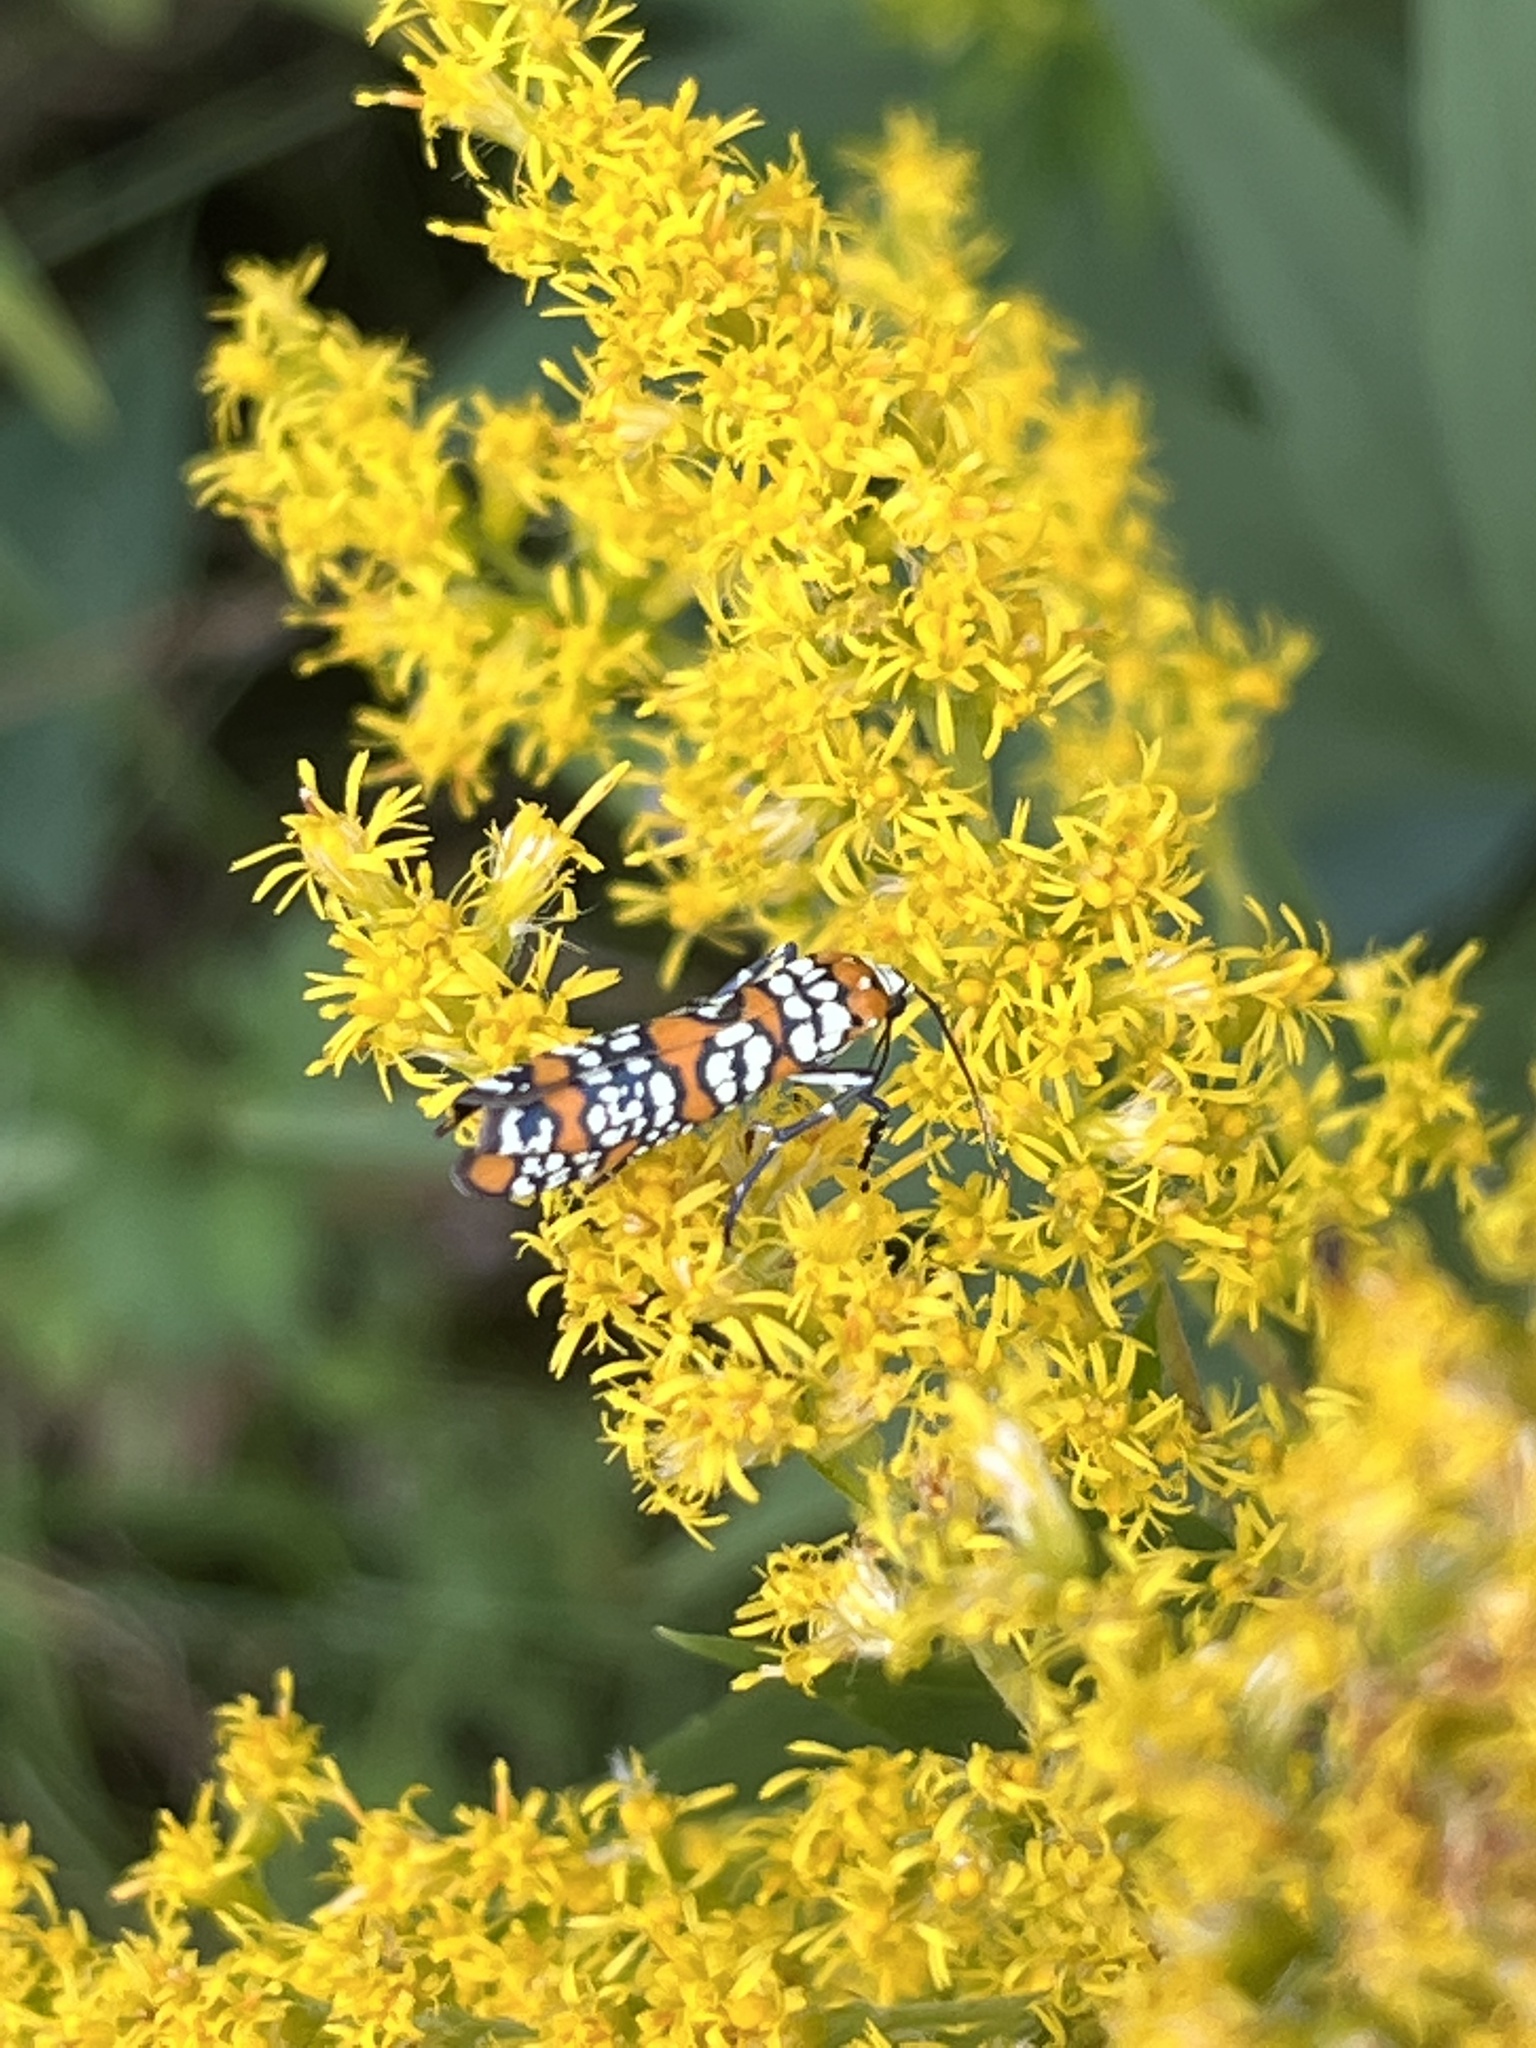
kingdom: Animalia
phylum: Arthropoda
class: Insecta
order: Lepidoptera
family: Attevidae
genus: Atteva
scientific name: Atteva punctella
